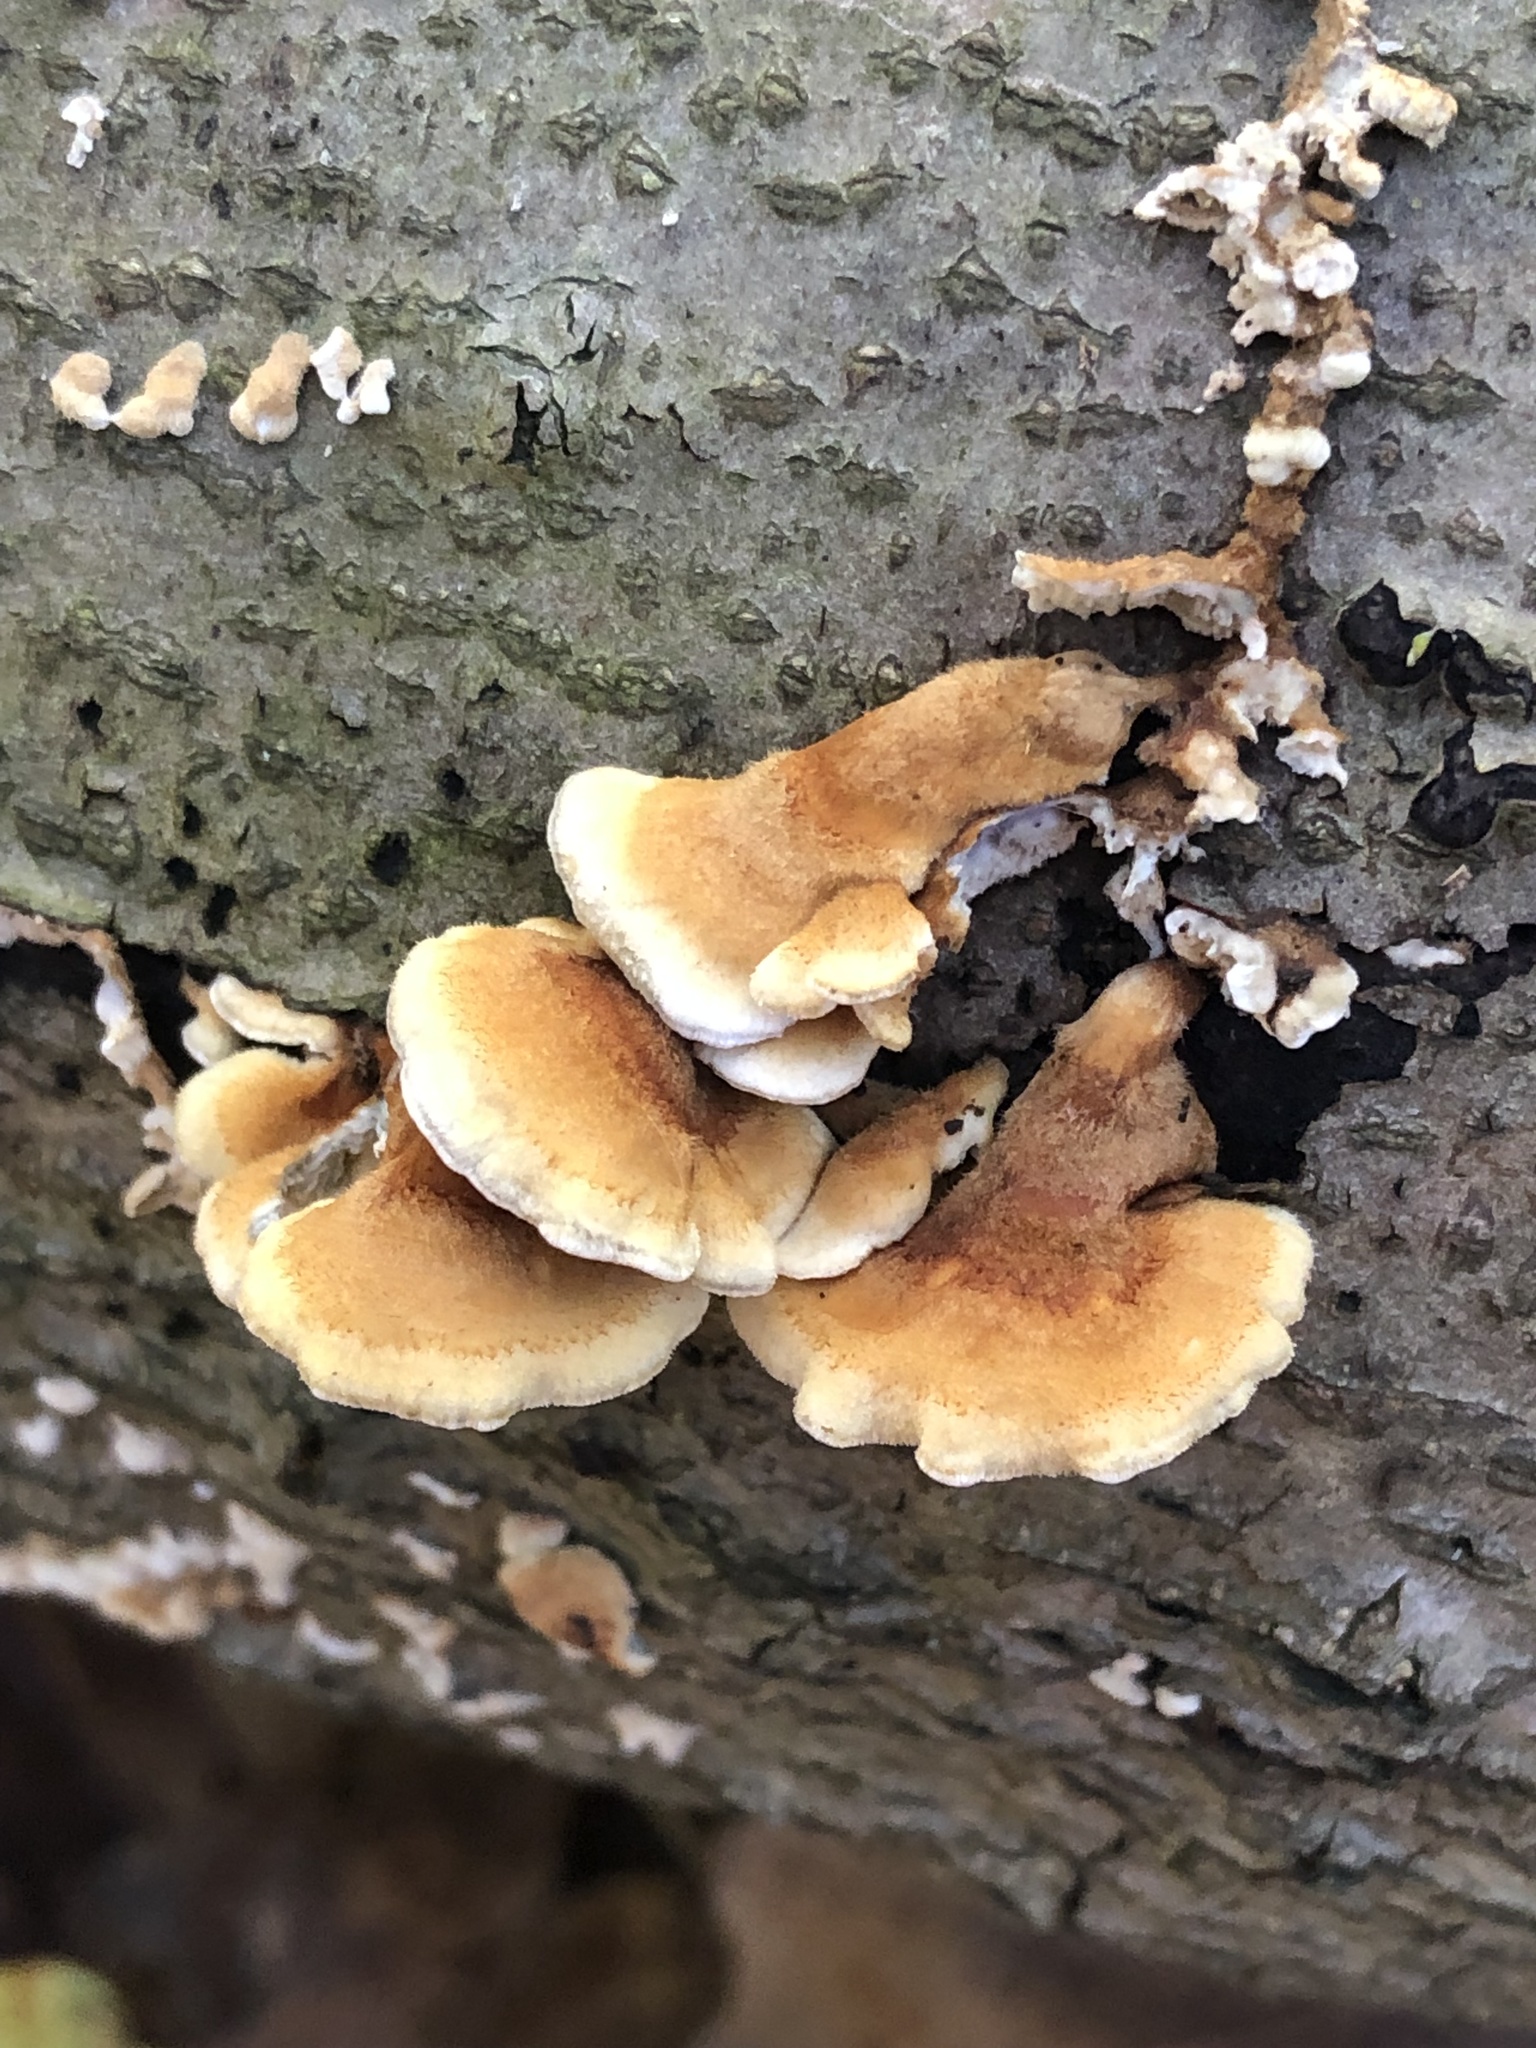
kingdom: Fungi
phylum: Basidiomycota
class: Agaricomycetes
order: Amylocorticiales
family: Amylocorticiaceae
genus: Plicaturopsis
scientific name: Plicaturopsis crispa
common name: Crimped gill
